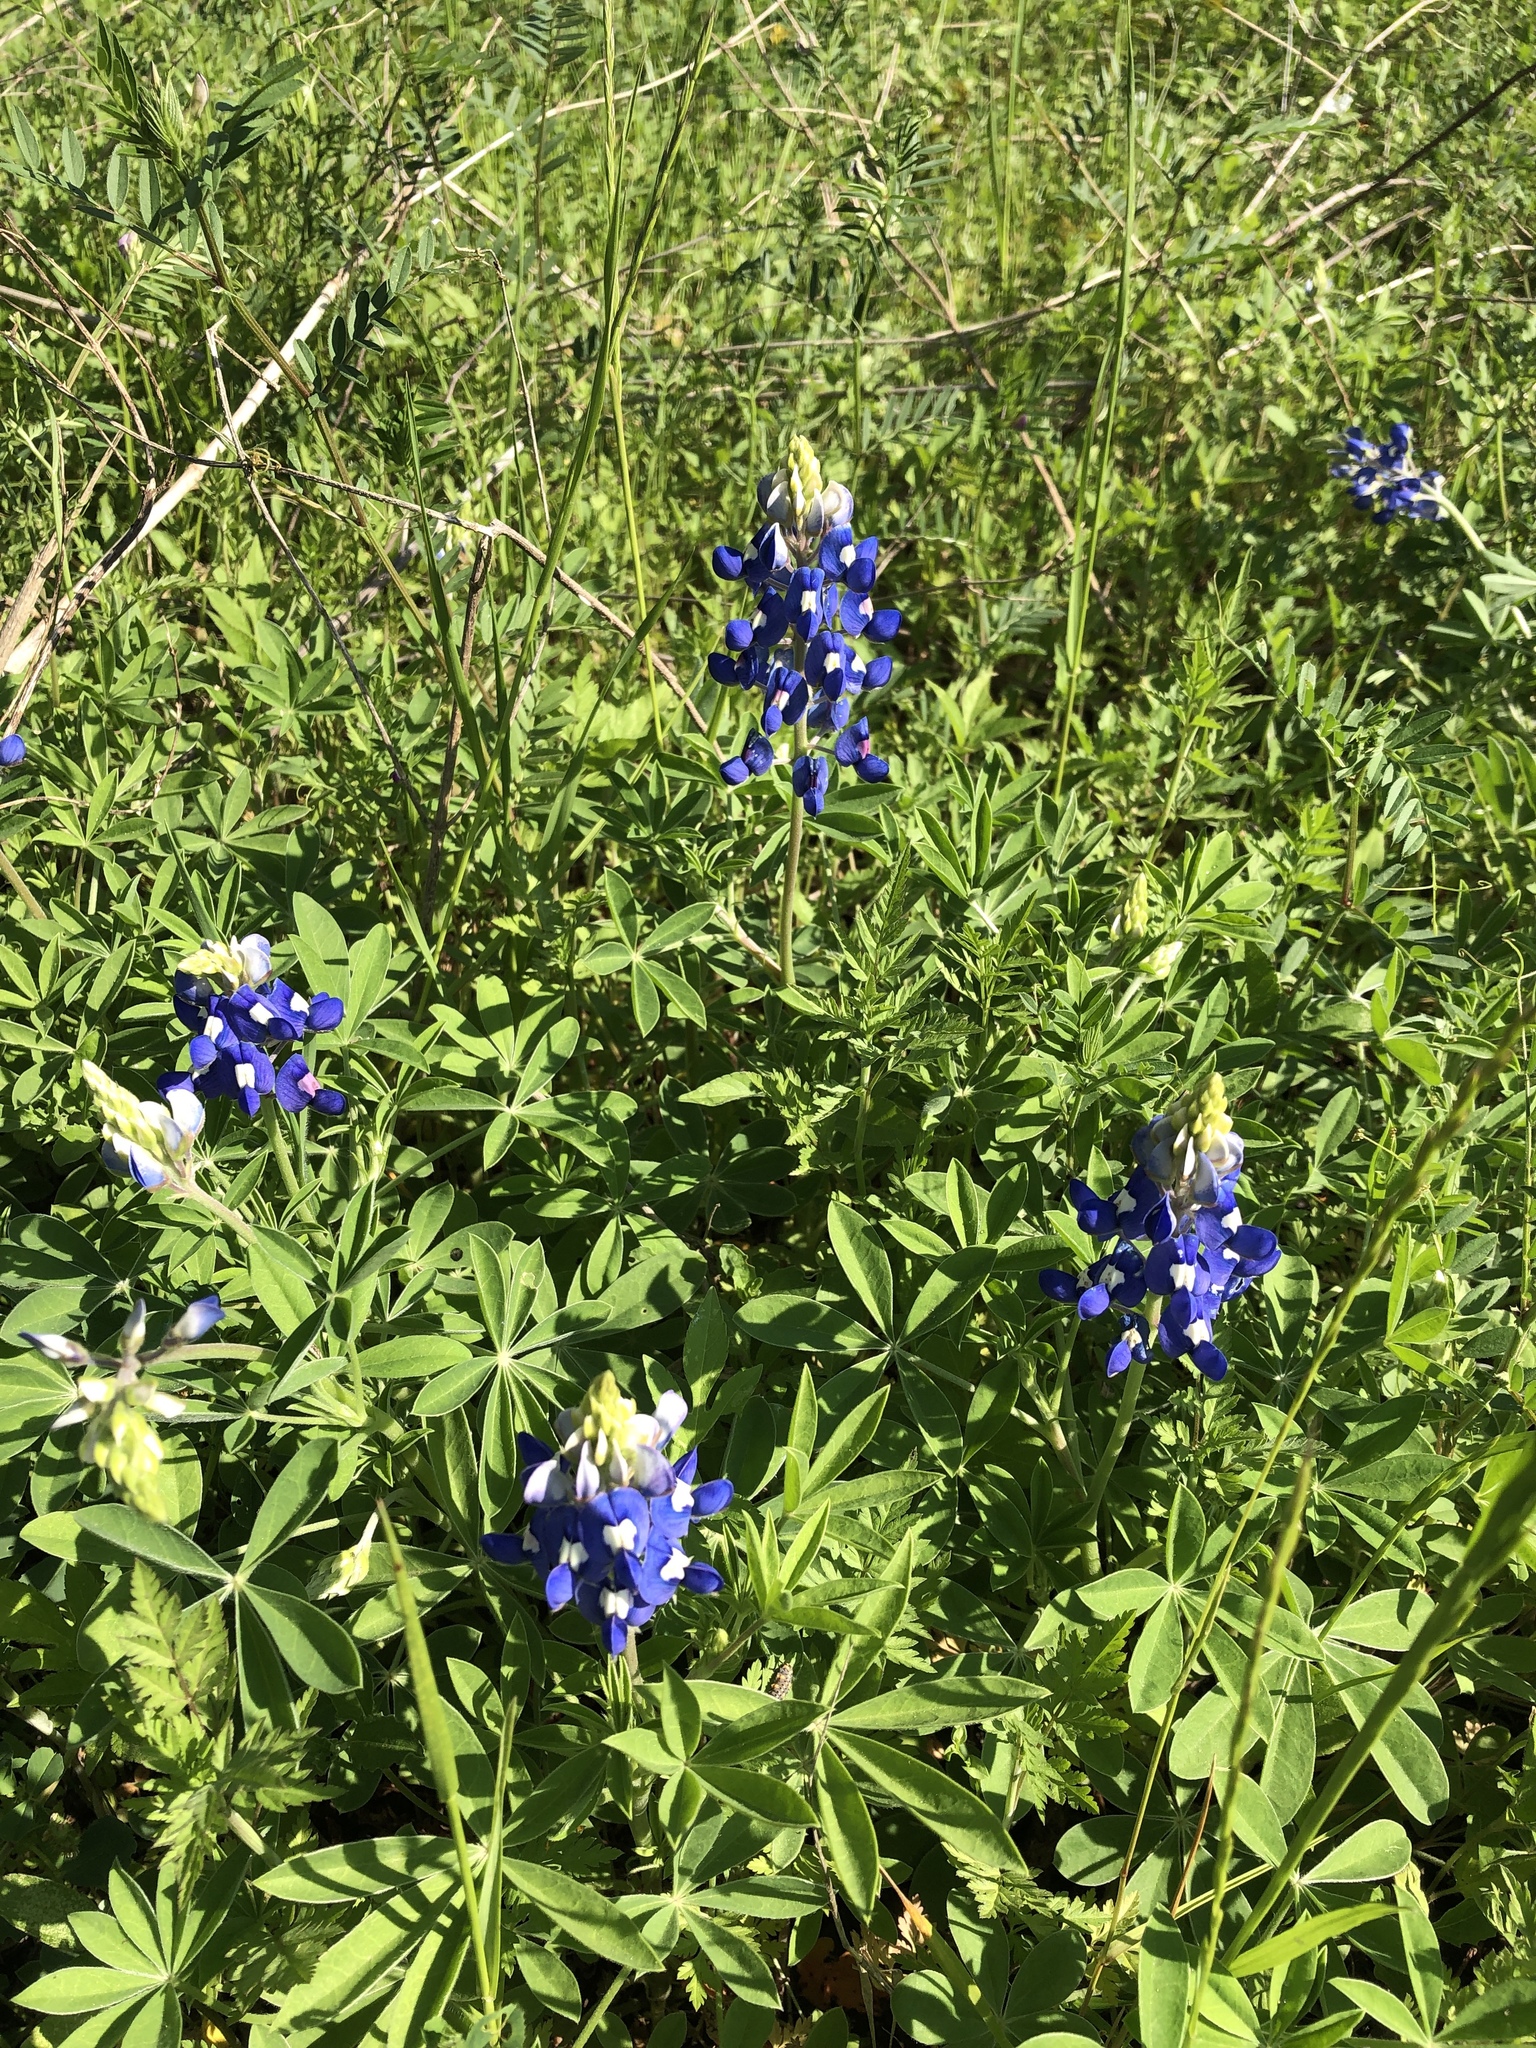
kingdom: Plantae
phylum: Tracheophyta
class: Magnoliopsida
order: Fabales
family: Fabaceae
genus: Lupinus
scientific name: Lupinus texensis
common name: Texas bluebonnet
